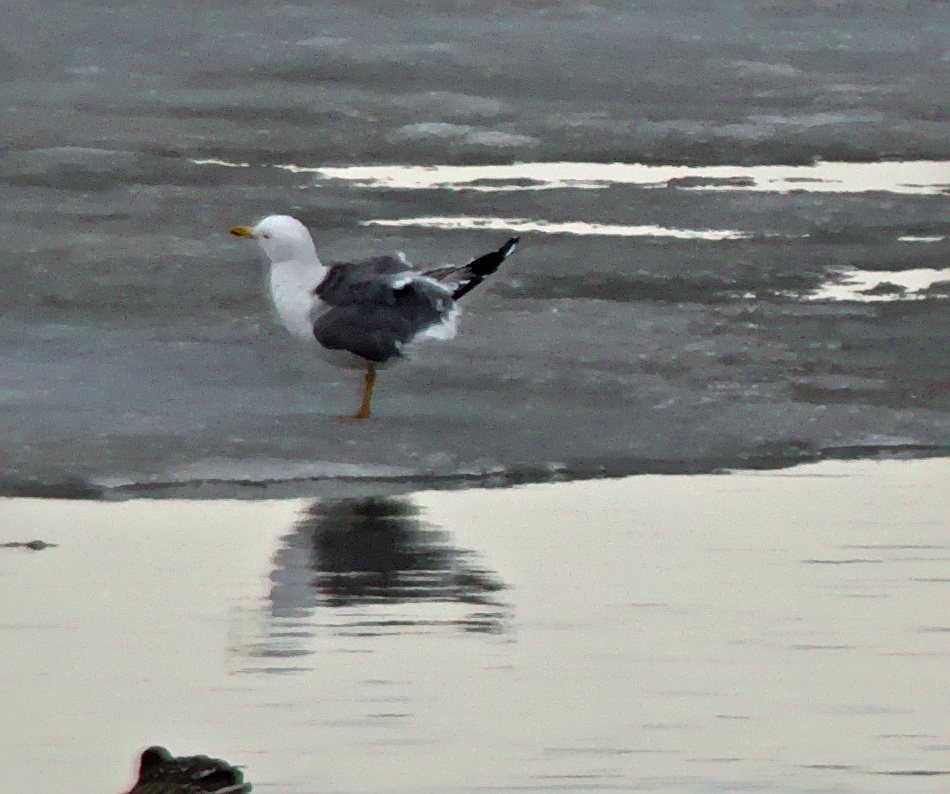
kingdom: Animalia
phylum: Chordata
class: Aves
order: Charadriiformes
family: Laridae
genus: Larus
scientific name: Larus fuscus
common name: Lesser black-backed gull
